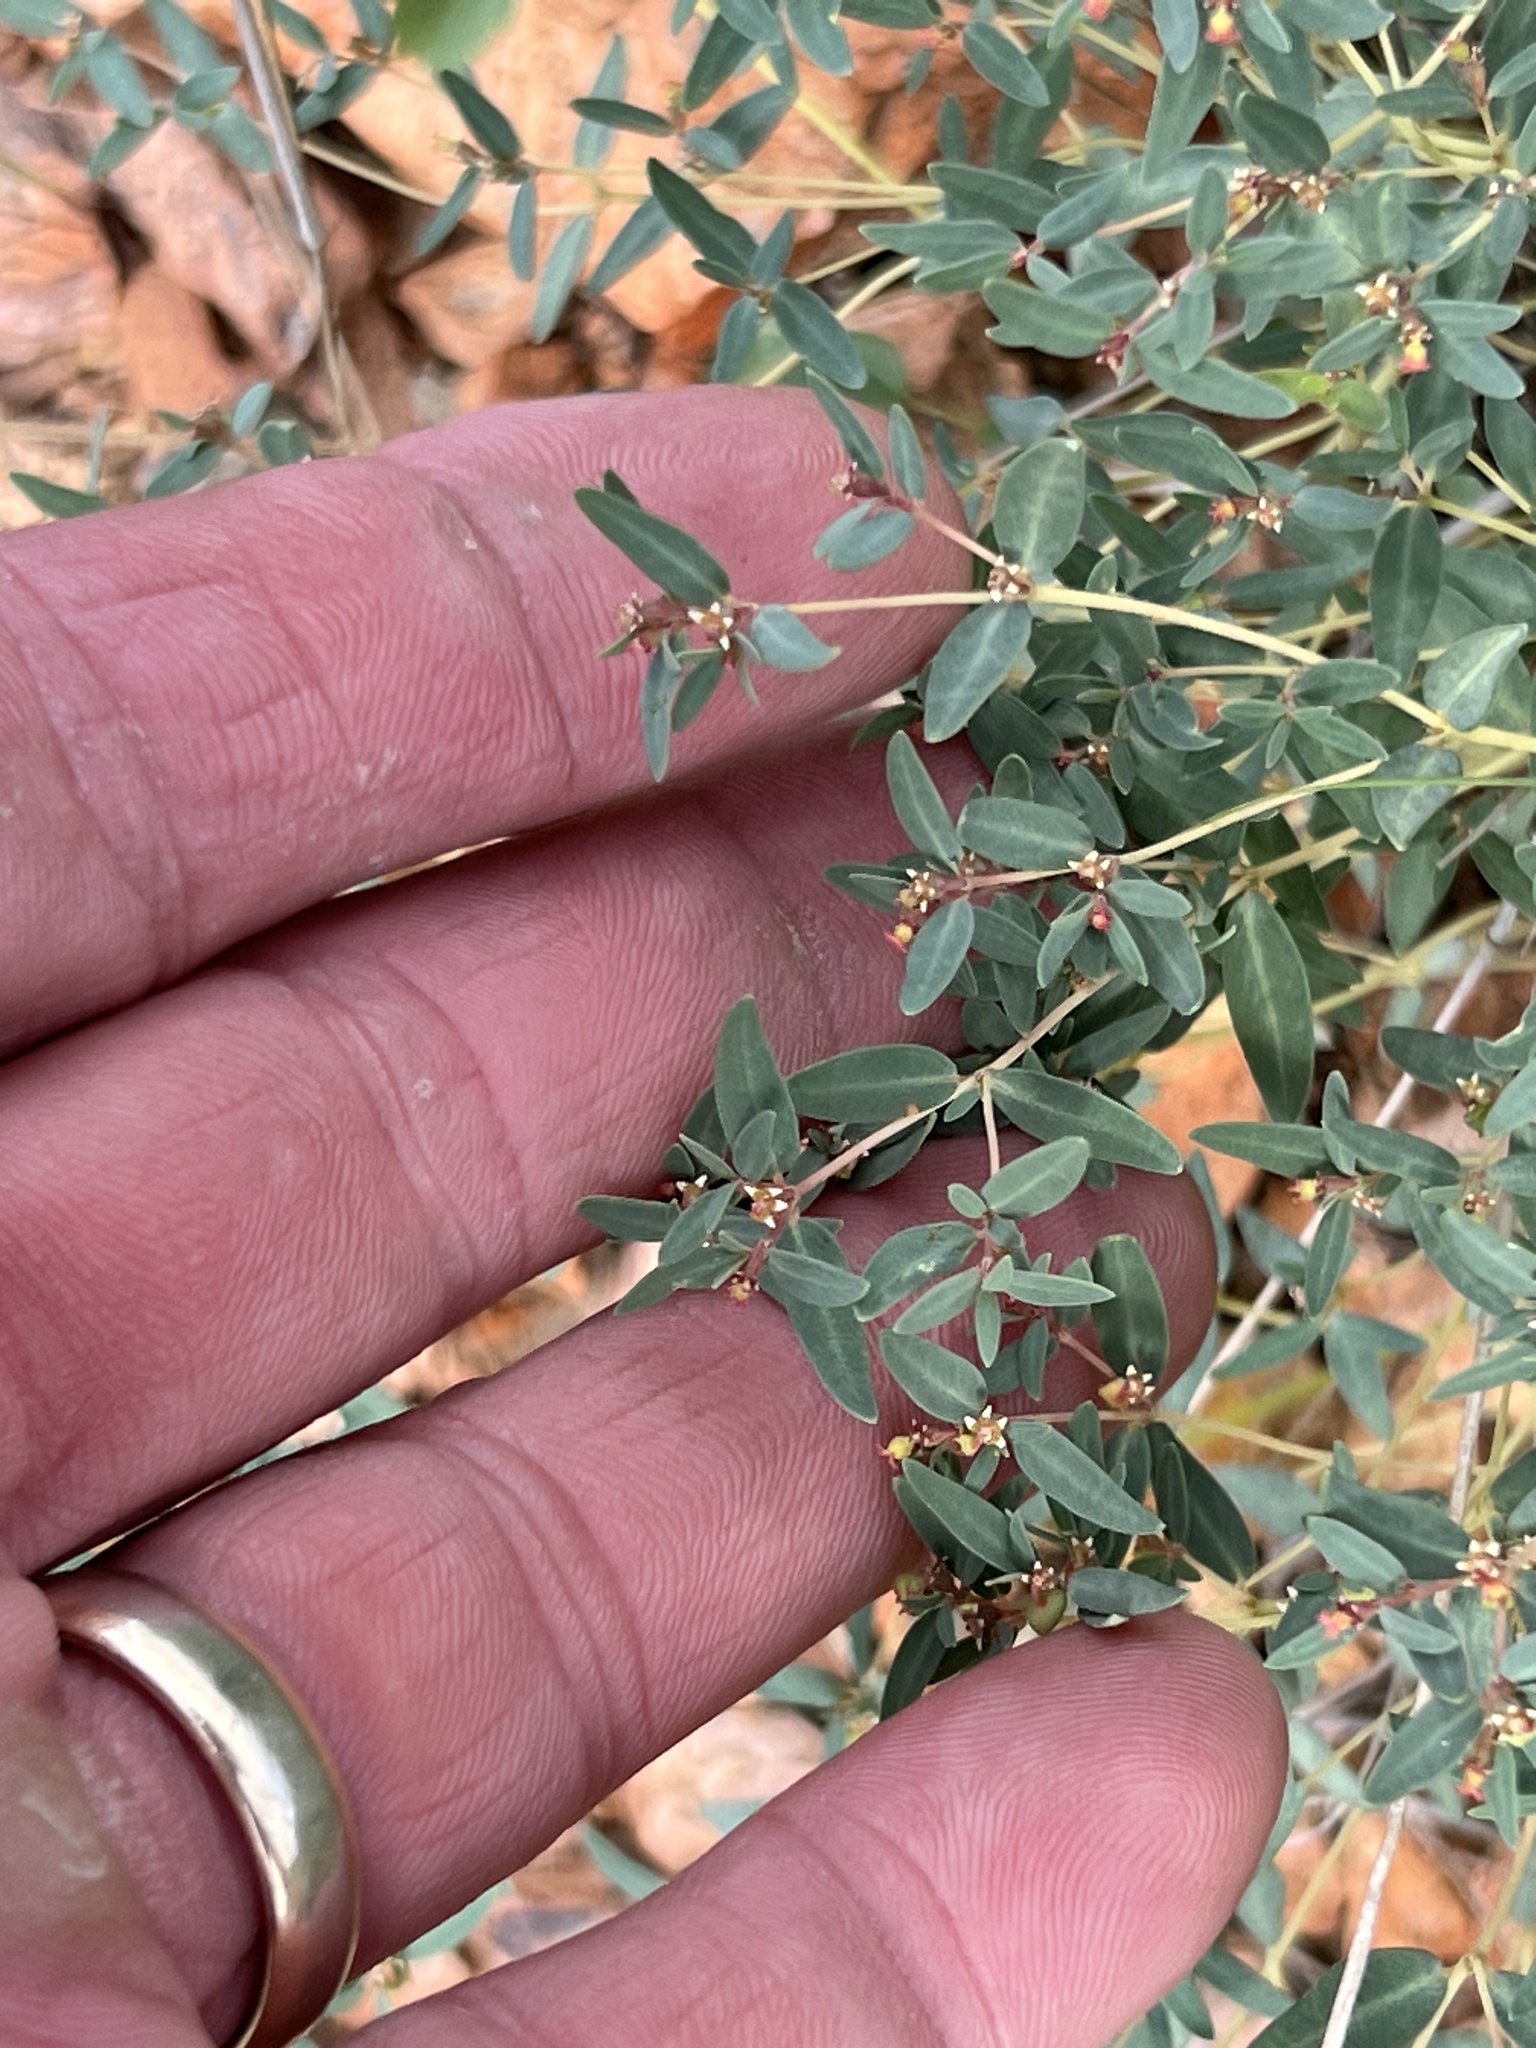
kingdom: Plantae
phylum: Tracheophyta
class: Magnoliopsida
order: Malpighiales
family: Euphorbiaceae
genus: Euphorbia
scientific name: Euphorbia chaetocalyx
